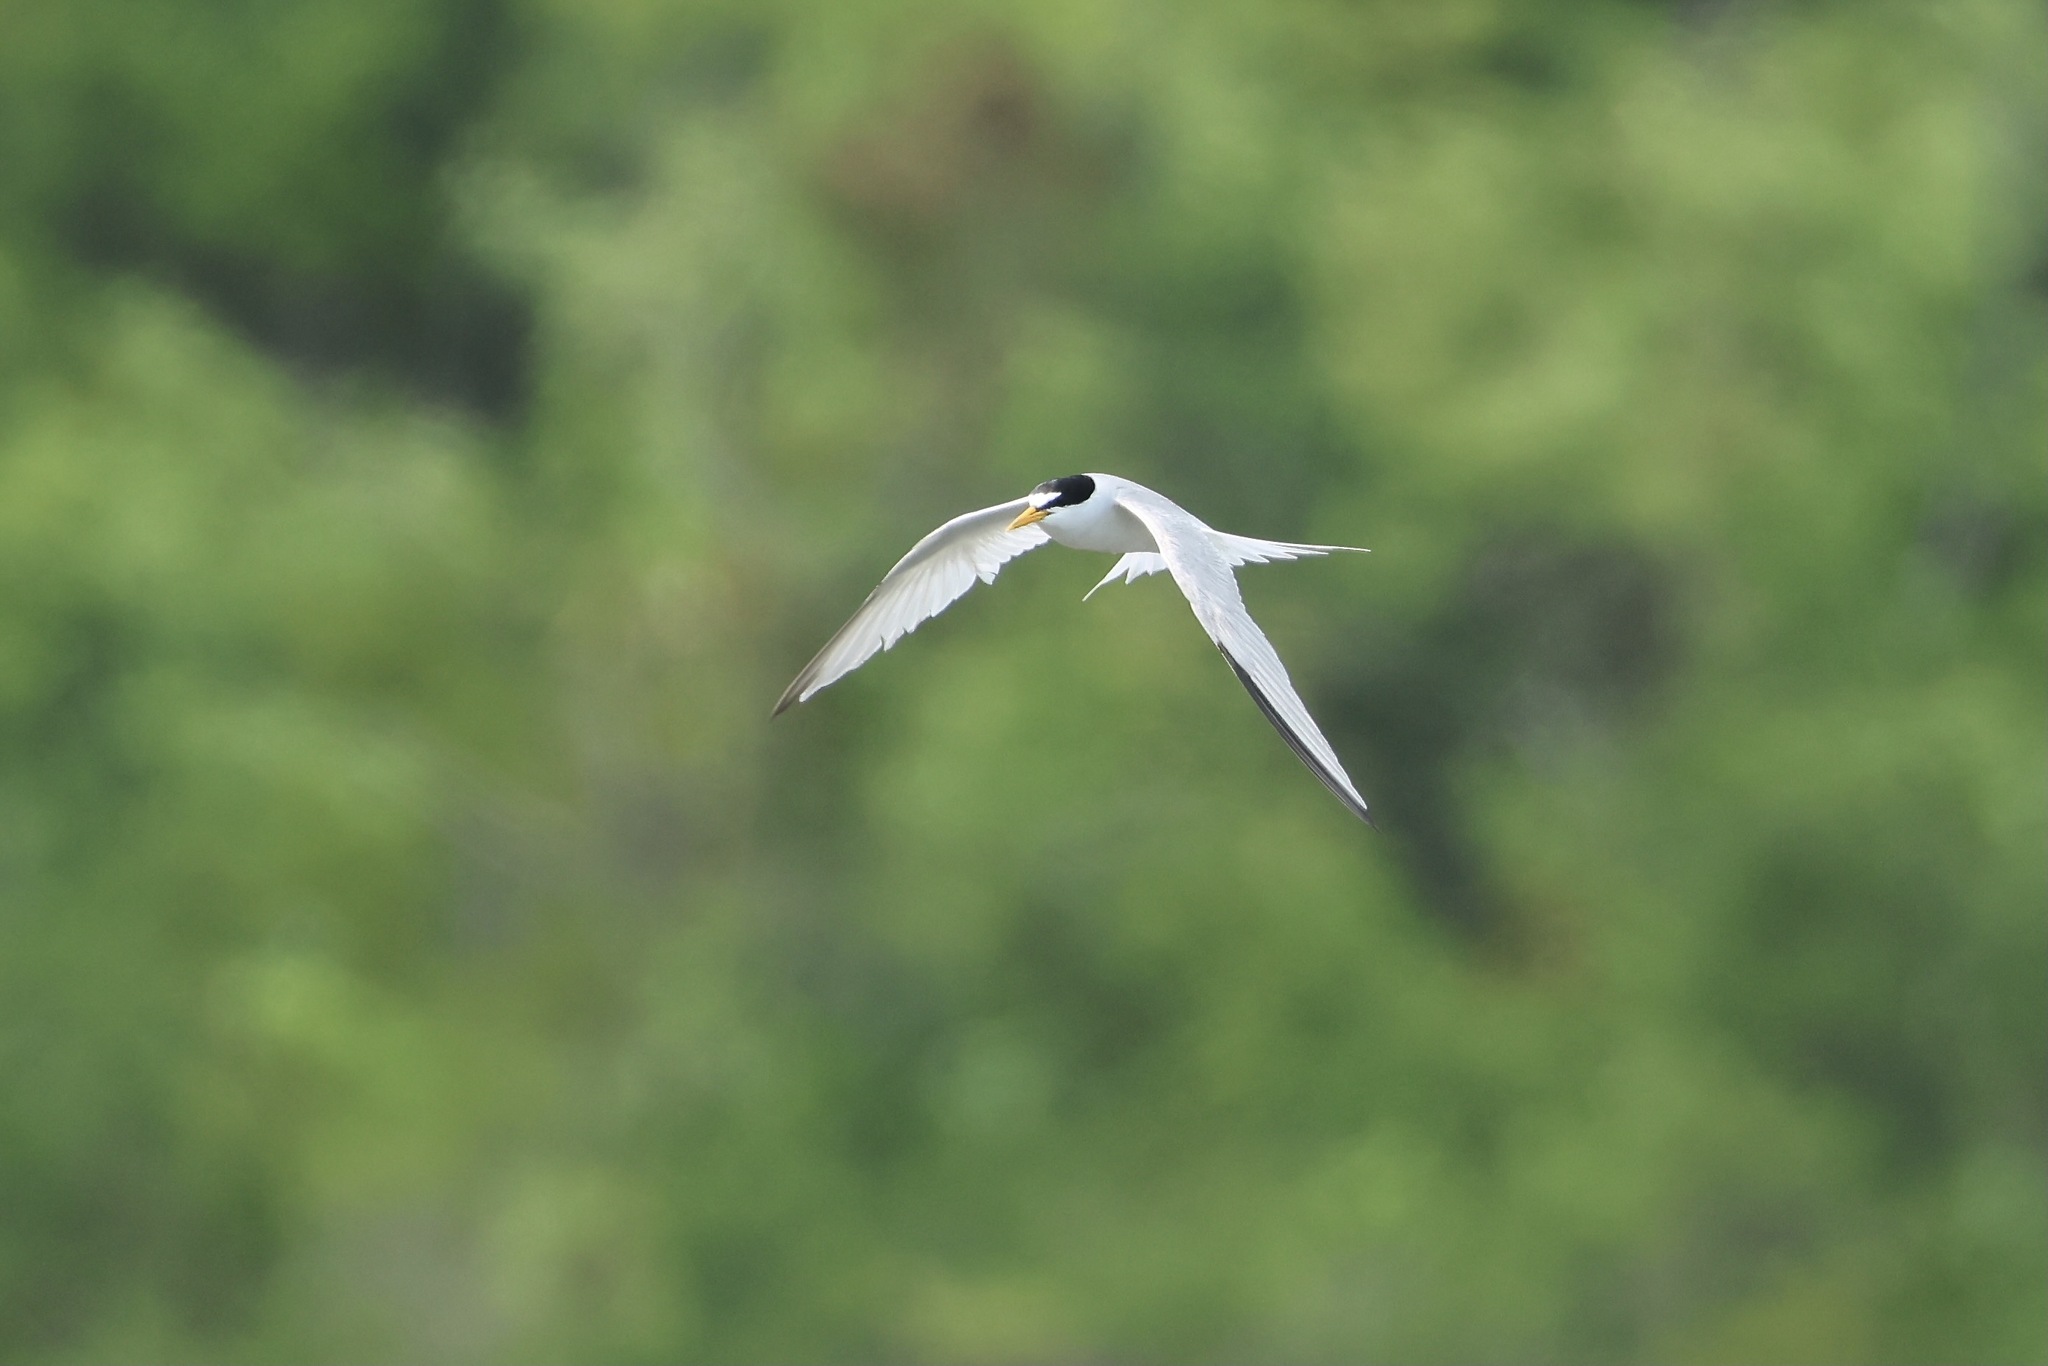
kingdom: Animalia
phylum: Chordata
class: Aves
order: Charadriiformes
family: Laridae
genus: Sternula
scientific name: Sternula antillarum
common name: Least tern
